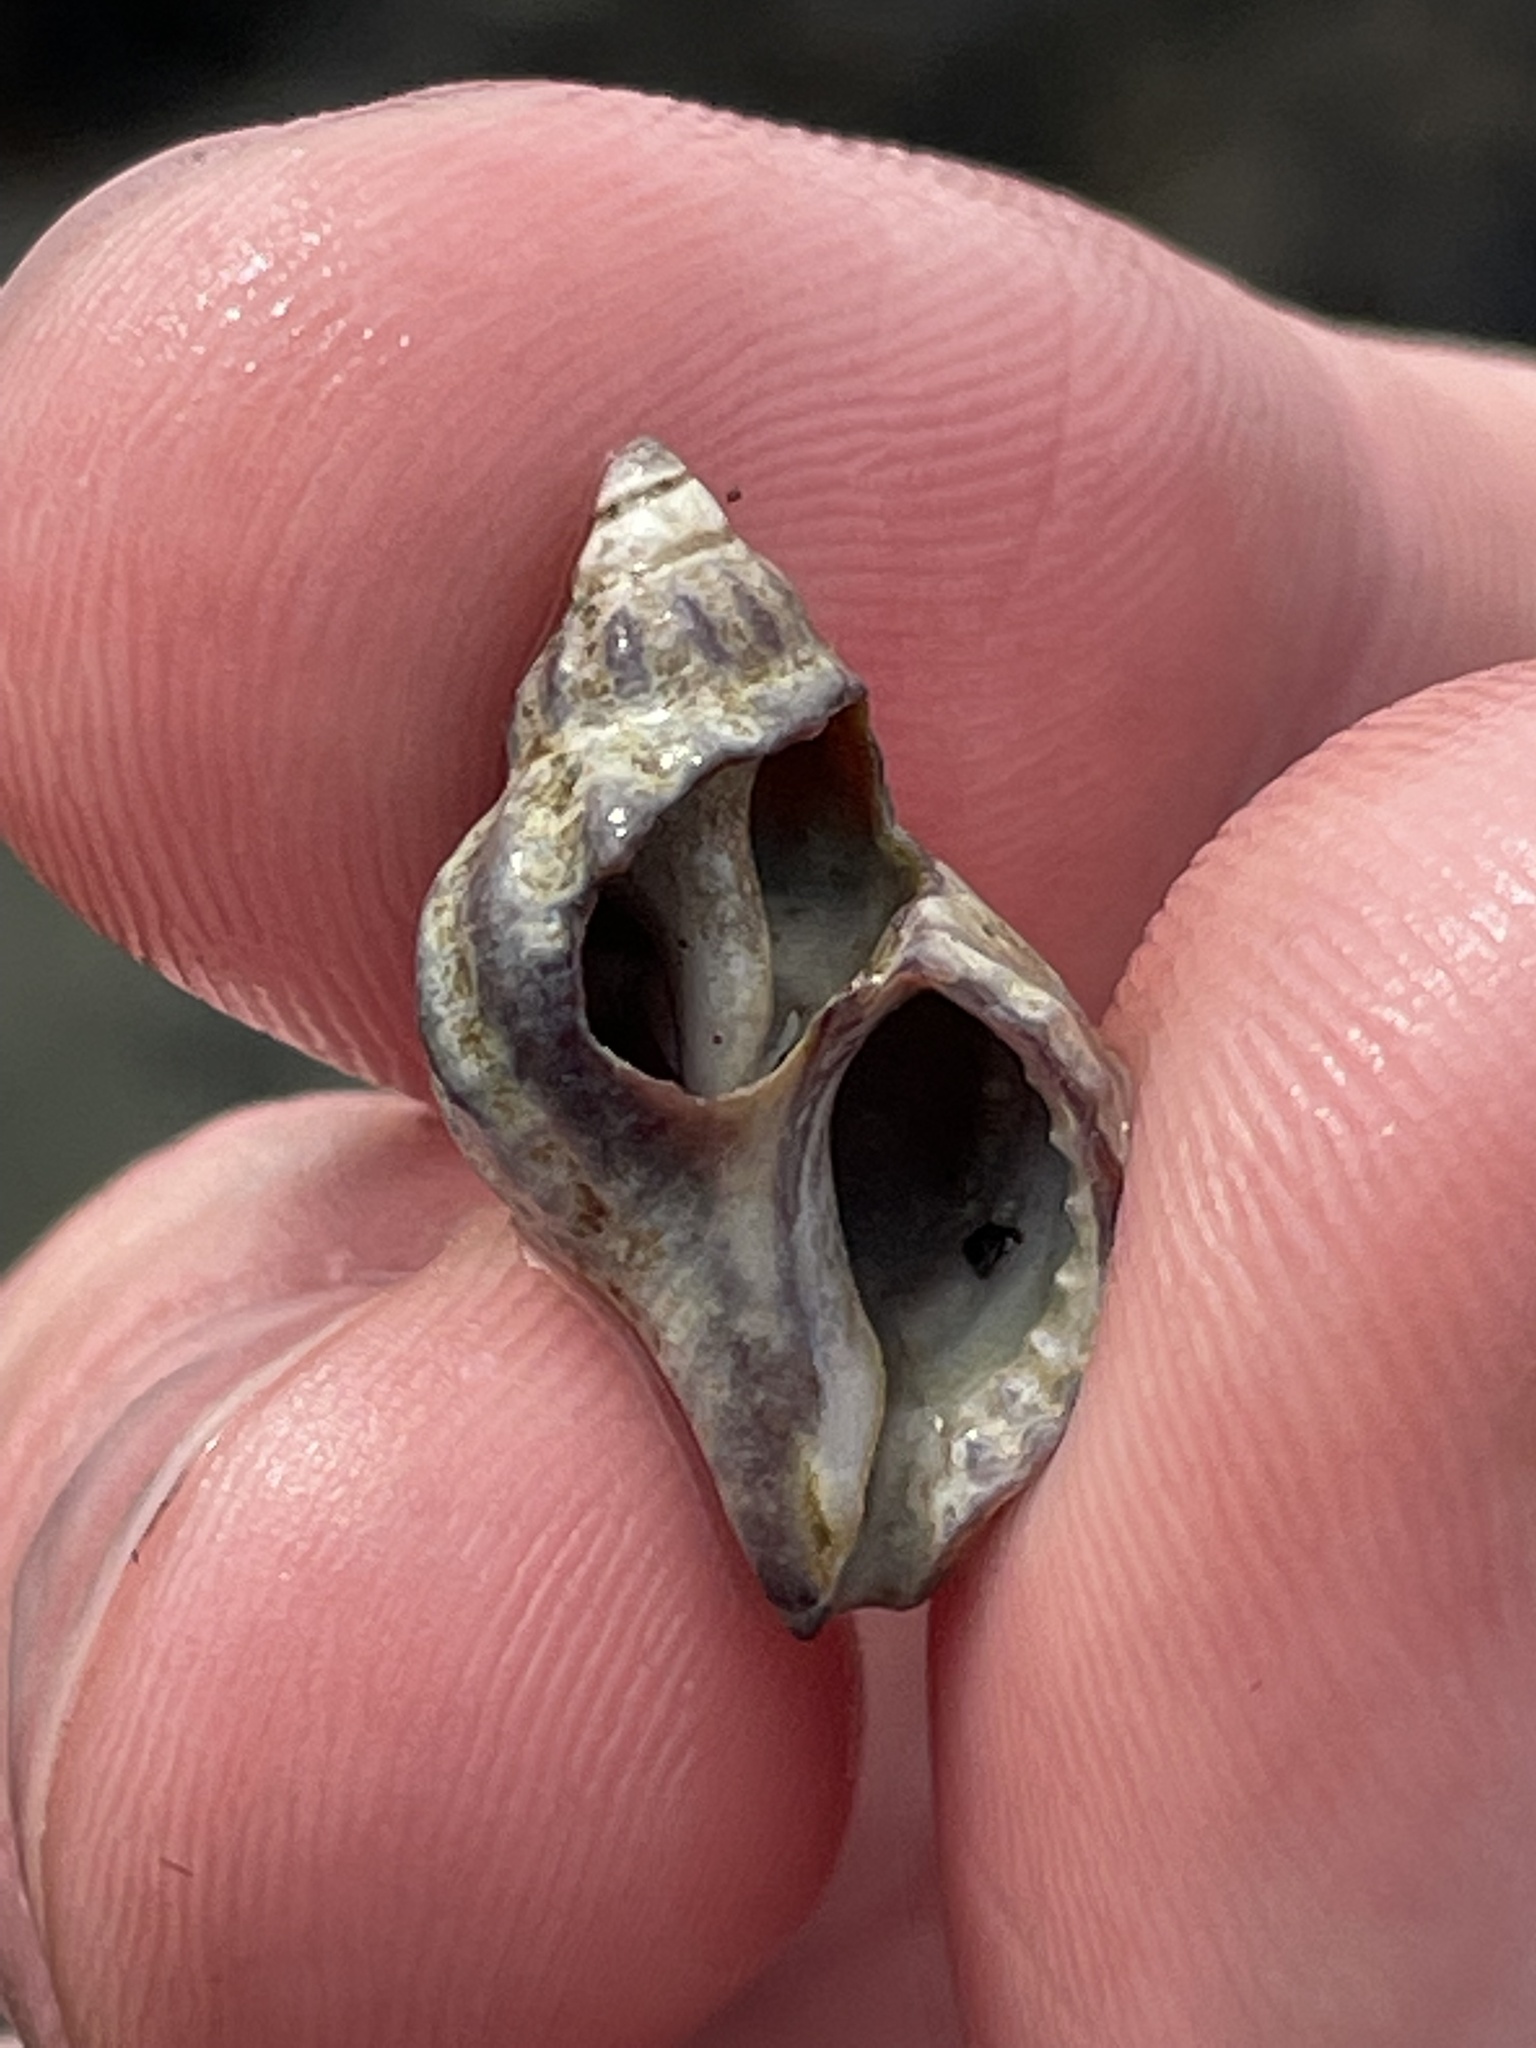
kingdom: Animalia
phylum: Mollusca
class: Gastropoda
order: Neogastropoda
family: Muricidae
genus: Urosalpinx
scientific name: Urosalpinx cinerea
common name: American sting winkle
